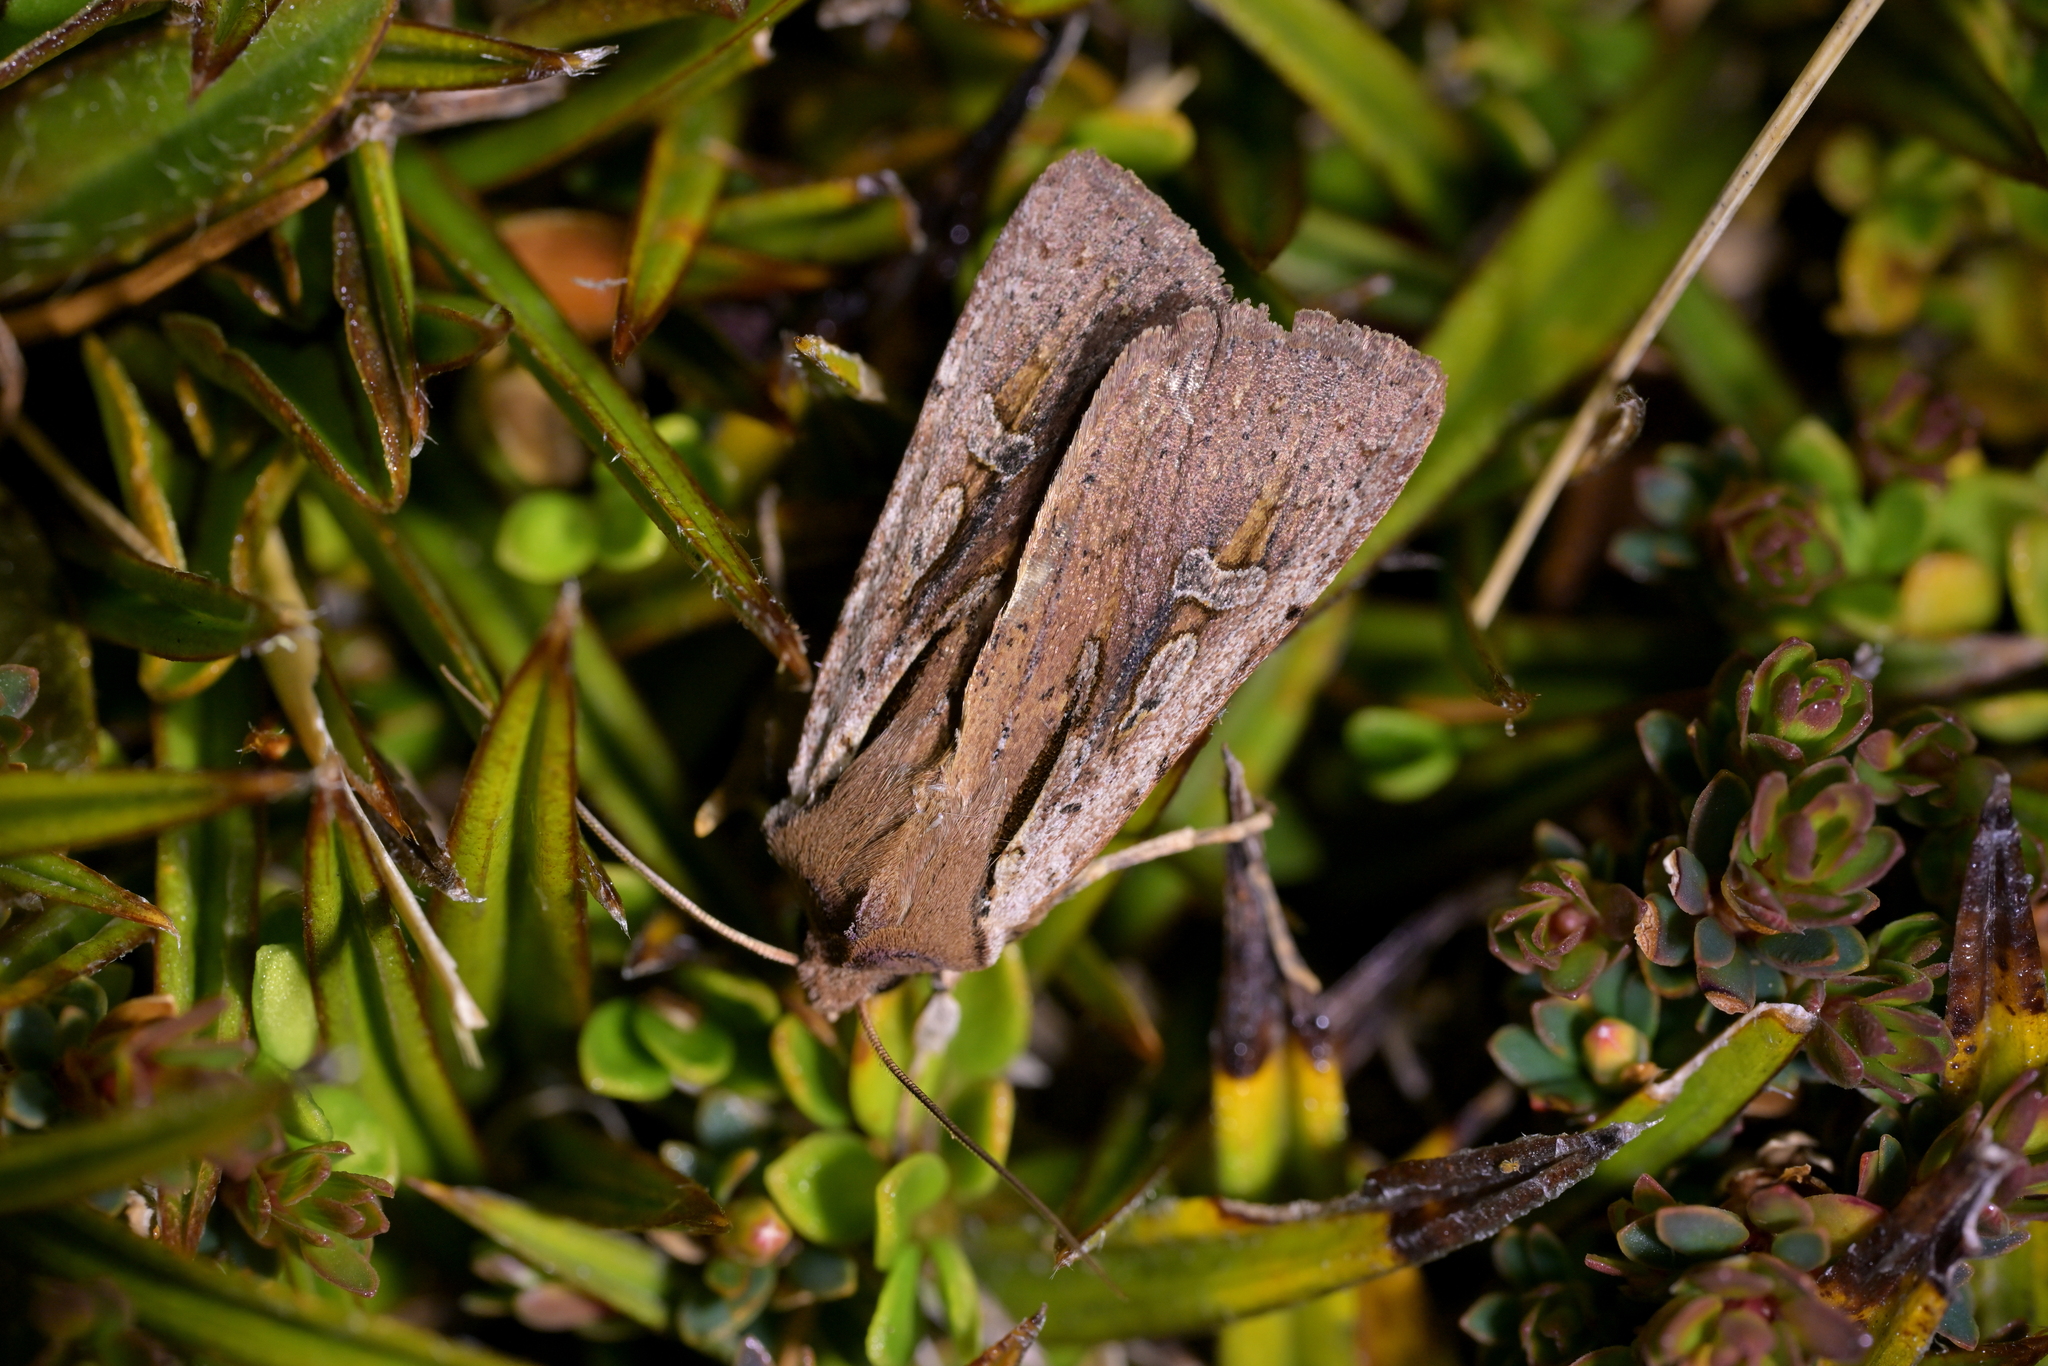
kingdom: Animalia
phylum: Arthropoda
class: Insecta
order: Lepidoptera
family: Noctuidae
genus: Ichneutica
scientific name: Ichneutica atristriga
